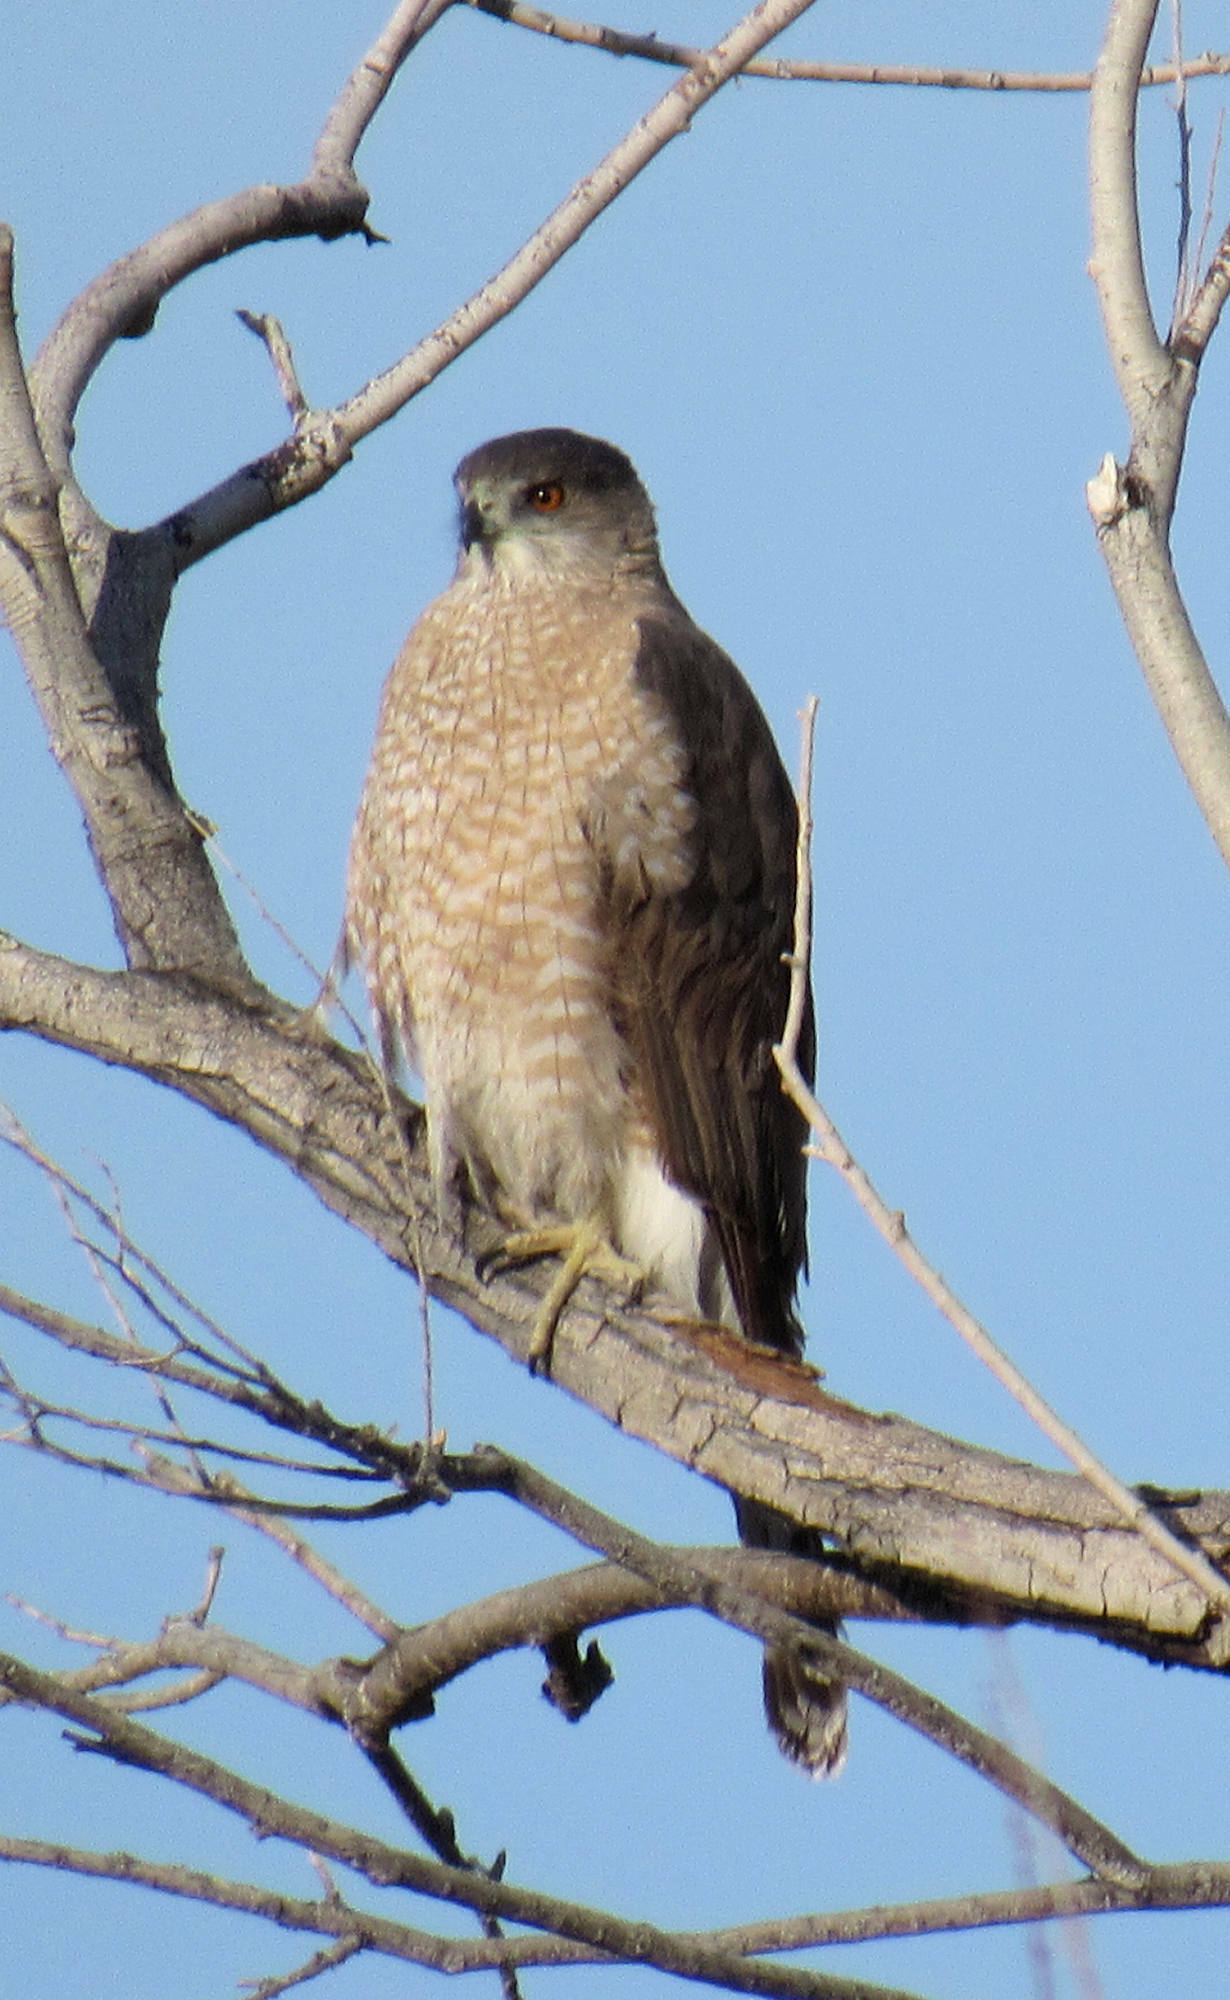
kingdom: Animalia
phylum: Chordata
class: Aves
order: Accipitriformes
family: Accipitridae
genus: Accipiter
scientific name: Accipiter cooperii
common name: Cooper's hawk
